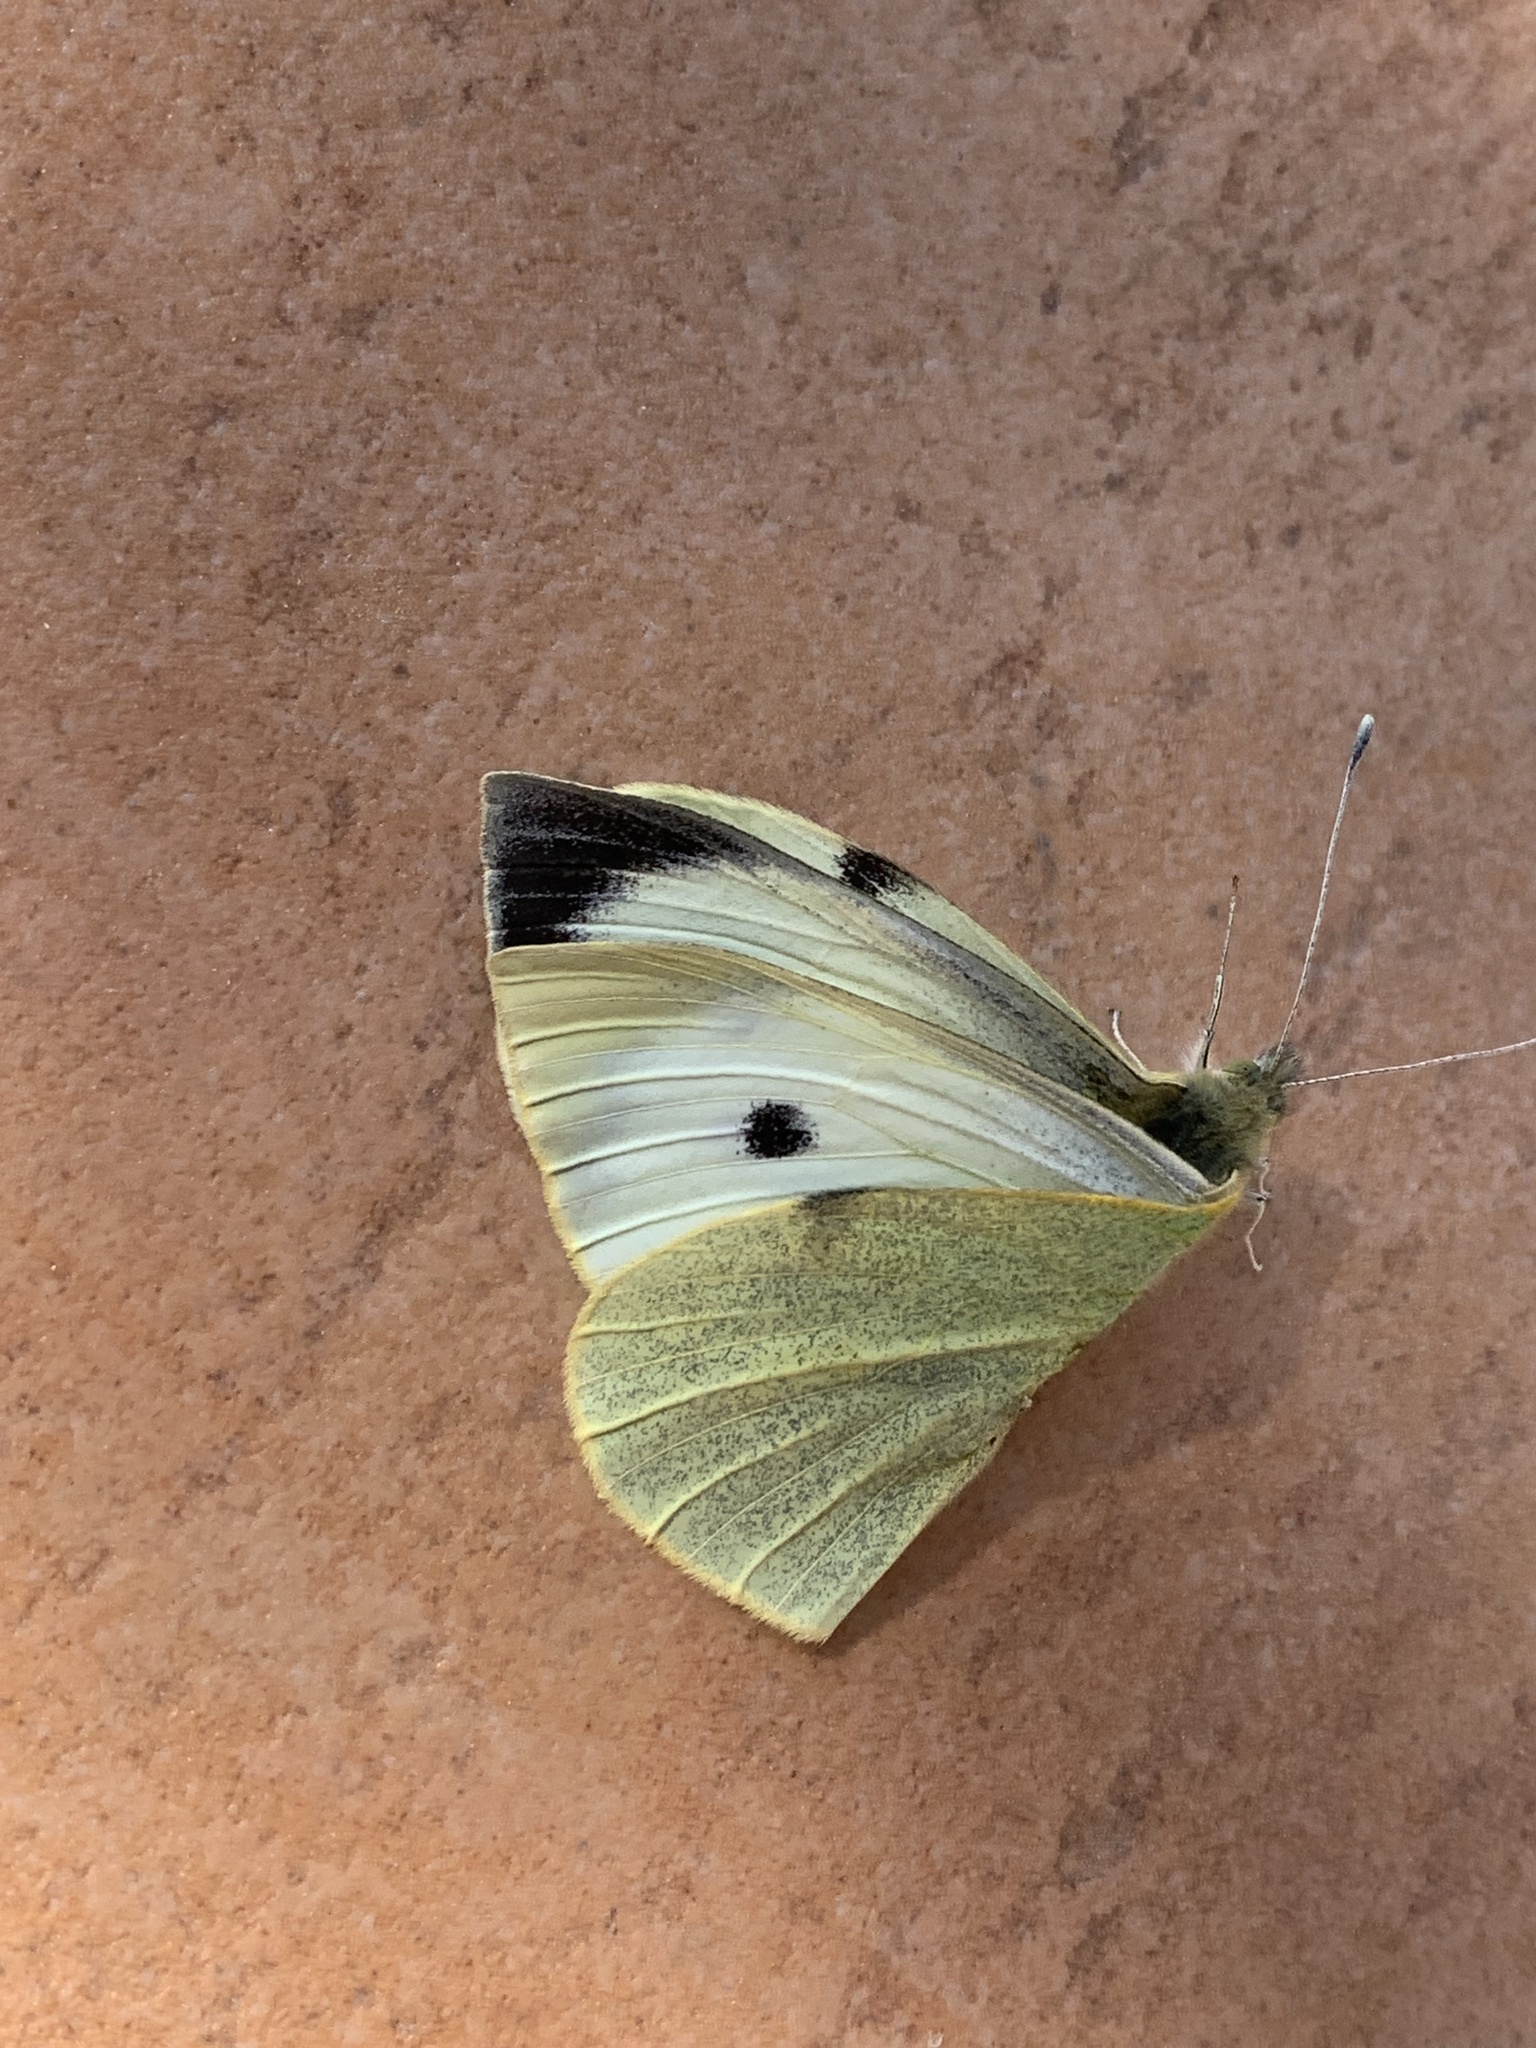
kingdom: Animalia
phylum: Arthropoda
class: Insecta
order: Lepidoptera
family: Pieridae
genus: Pieris
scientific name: Pieris brassicae
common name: Large white
